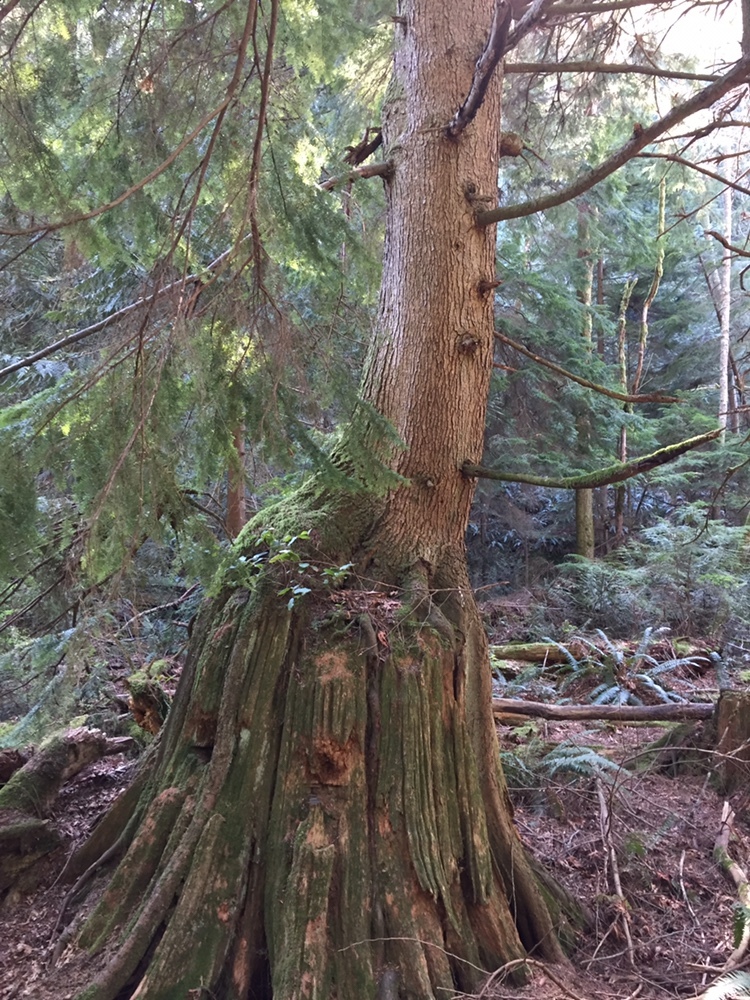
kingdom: Plantae
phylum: Tracheophyta
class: Pinopsida
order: Pinales
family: Pinaceae
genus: Tsuga
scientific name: Tsuga heterophylla
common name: Western hemlock
